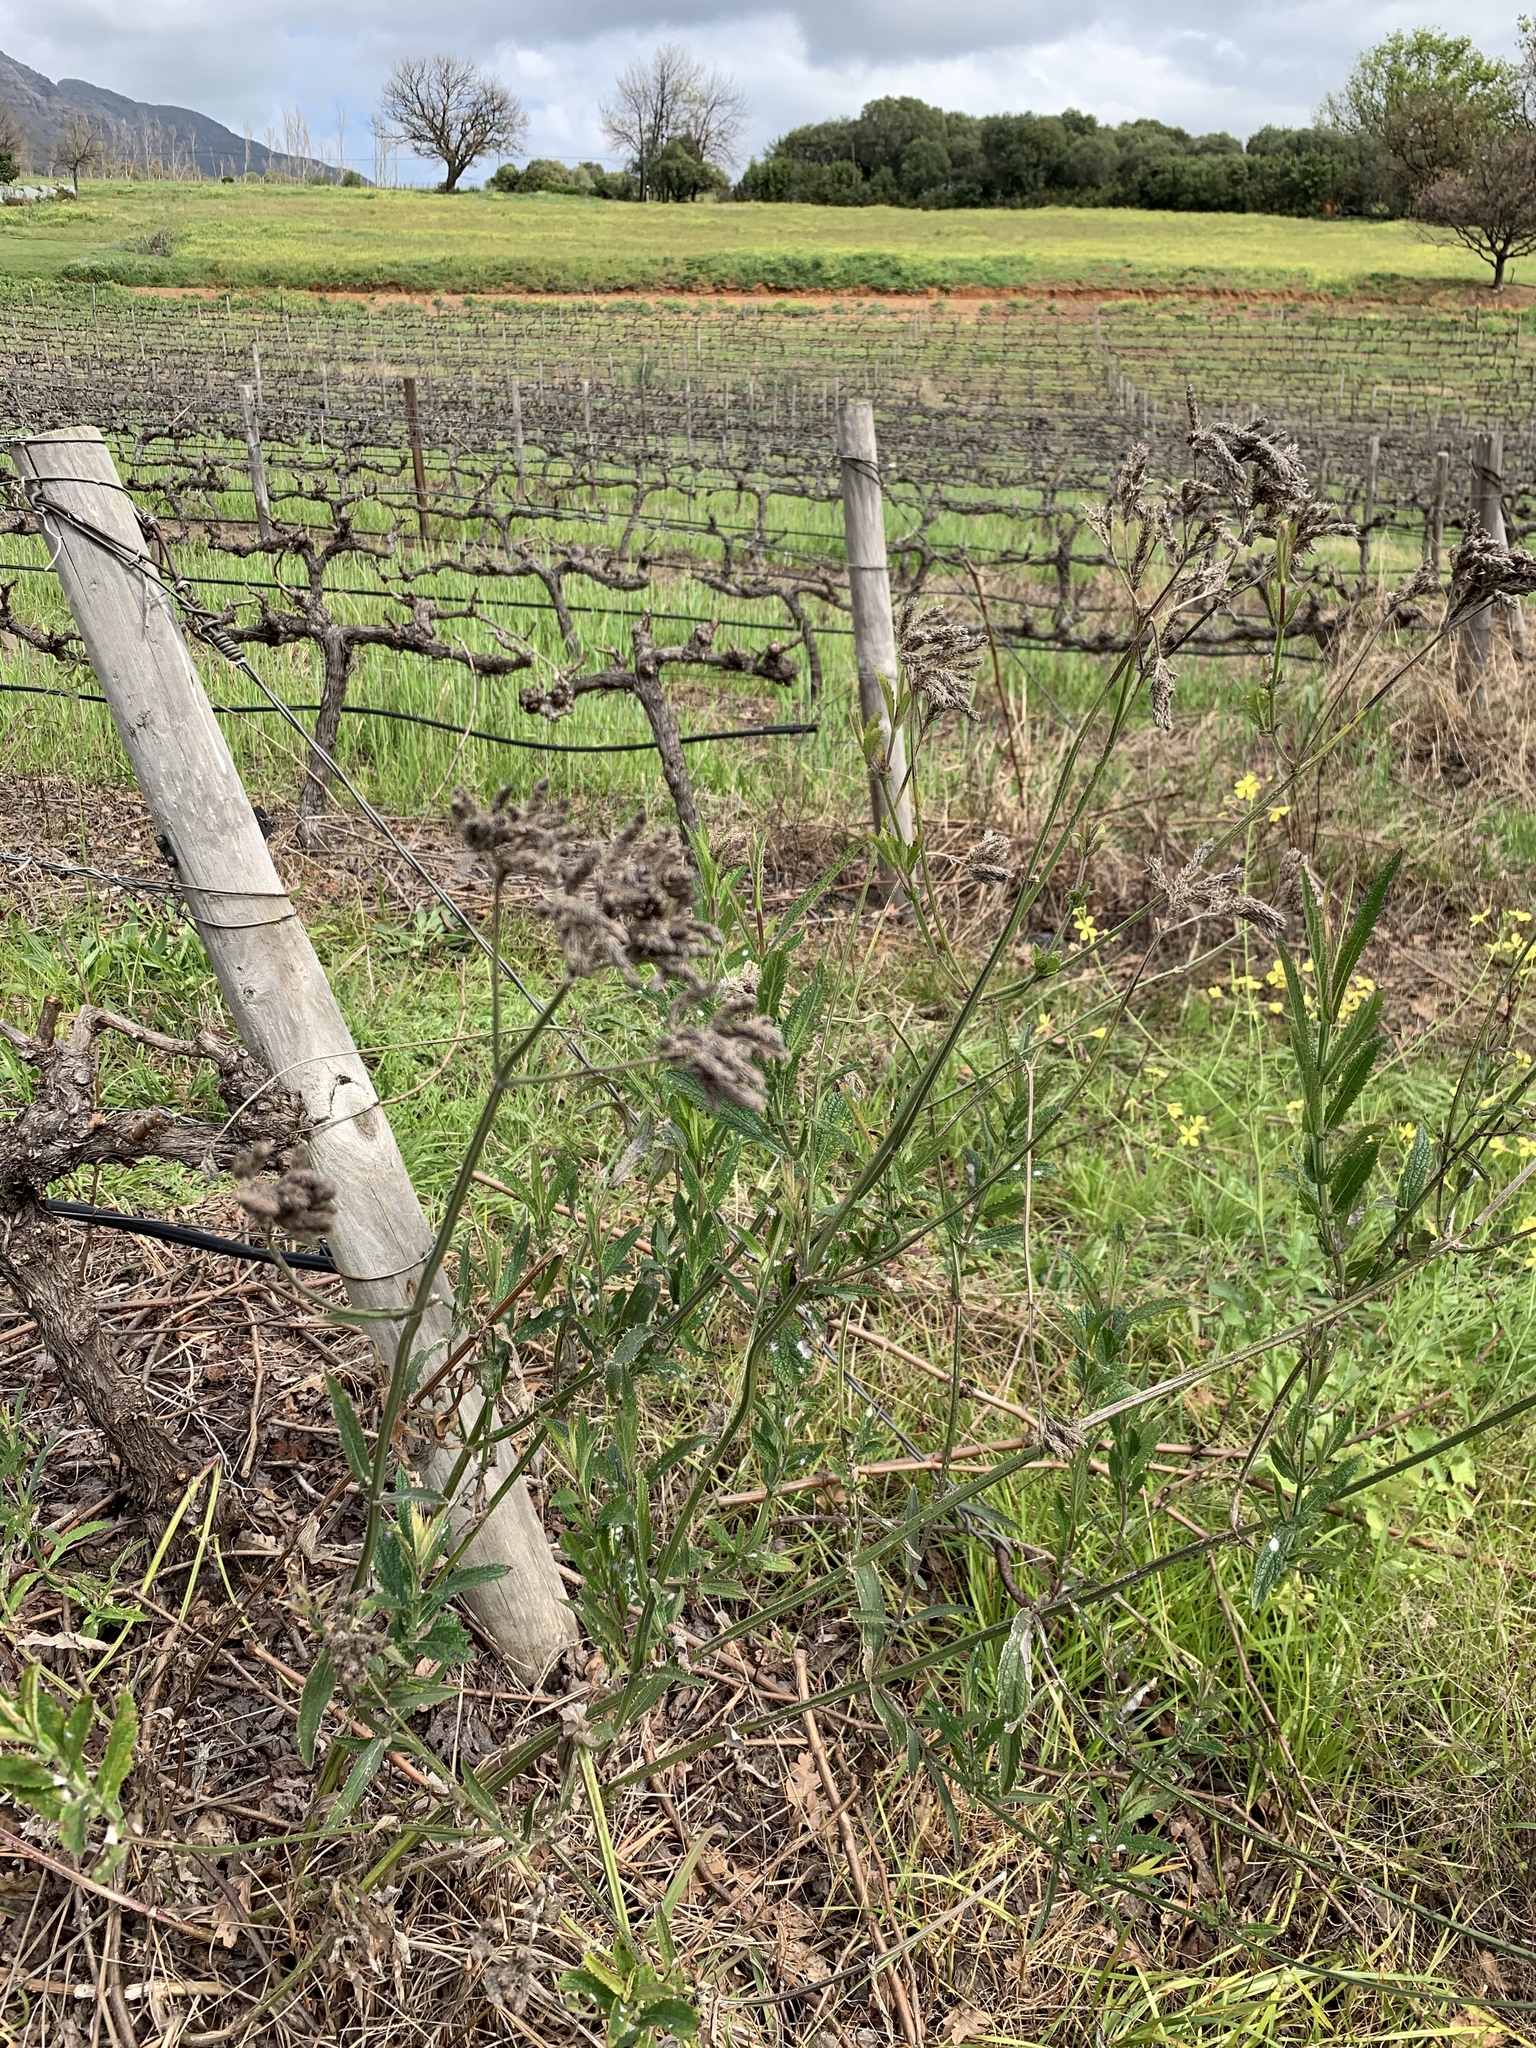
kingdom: Plantae
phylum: Tracheophyta
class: Magnoliopsida
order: Lamiales
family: Verbenaceae
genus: Verbena
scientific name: Verbena bonariensis
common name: Purpletop vervain
